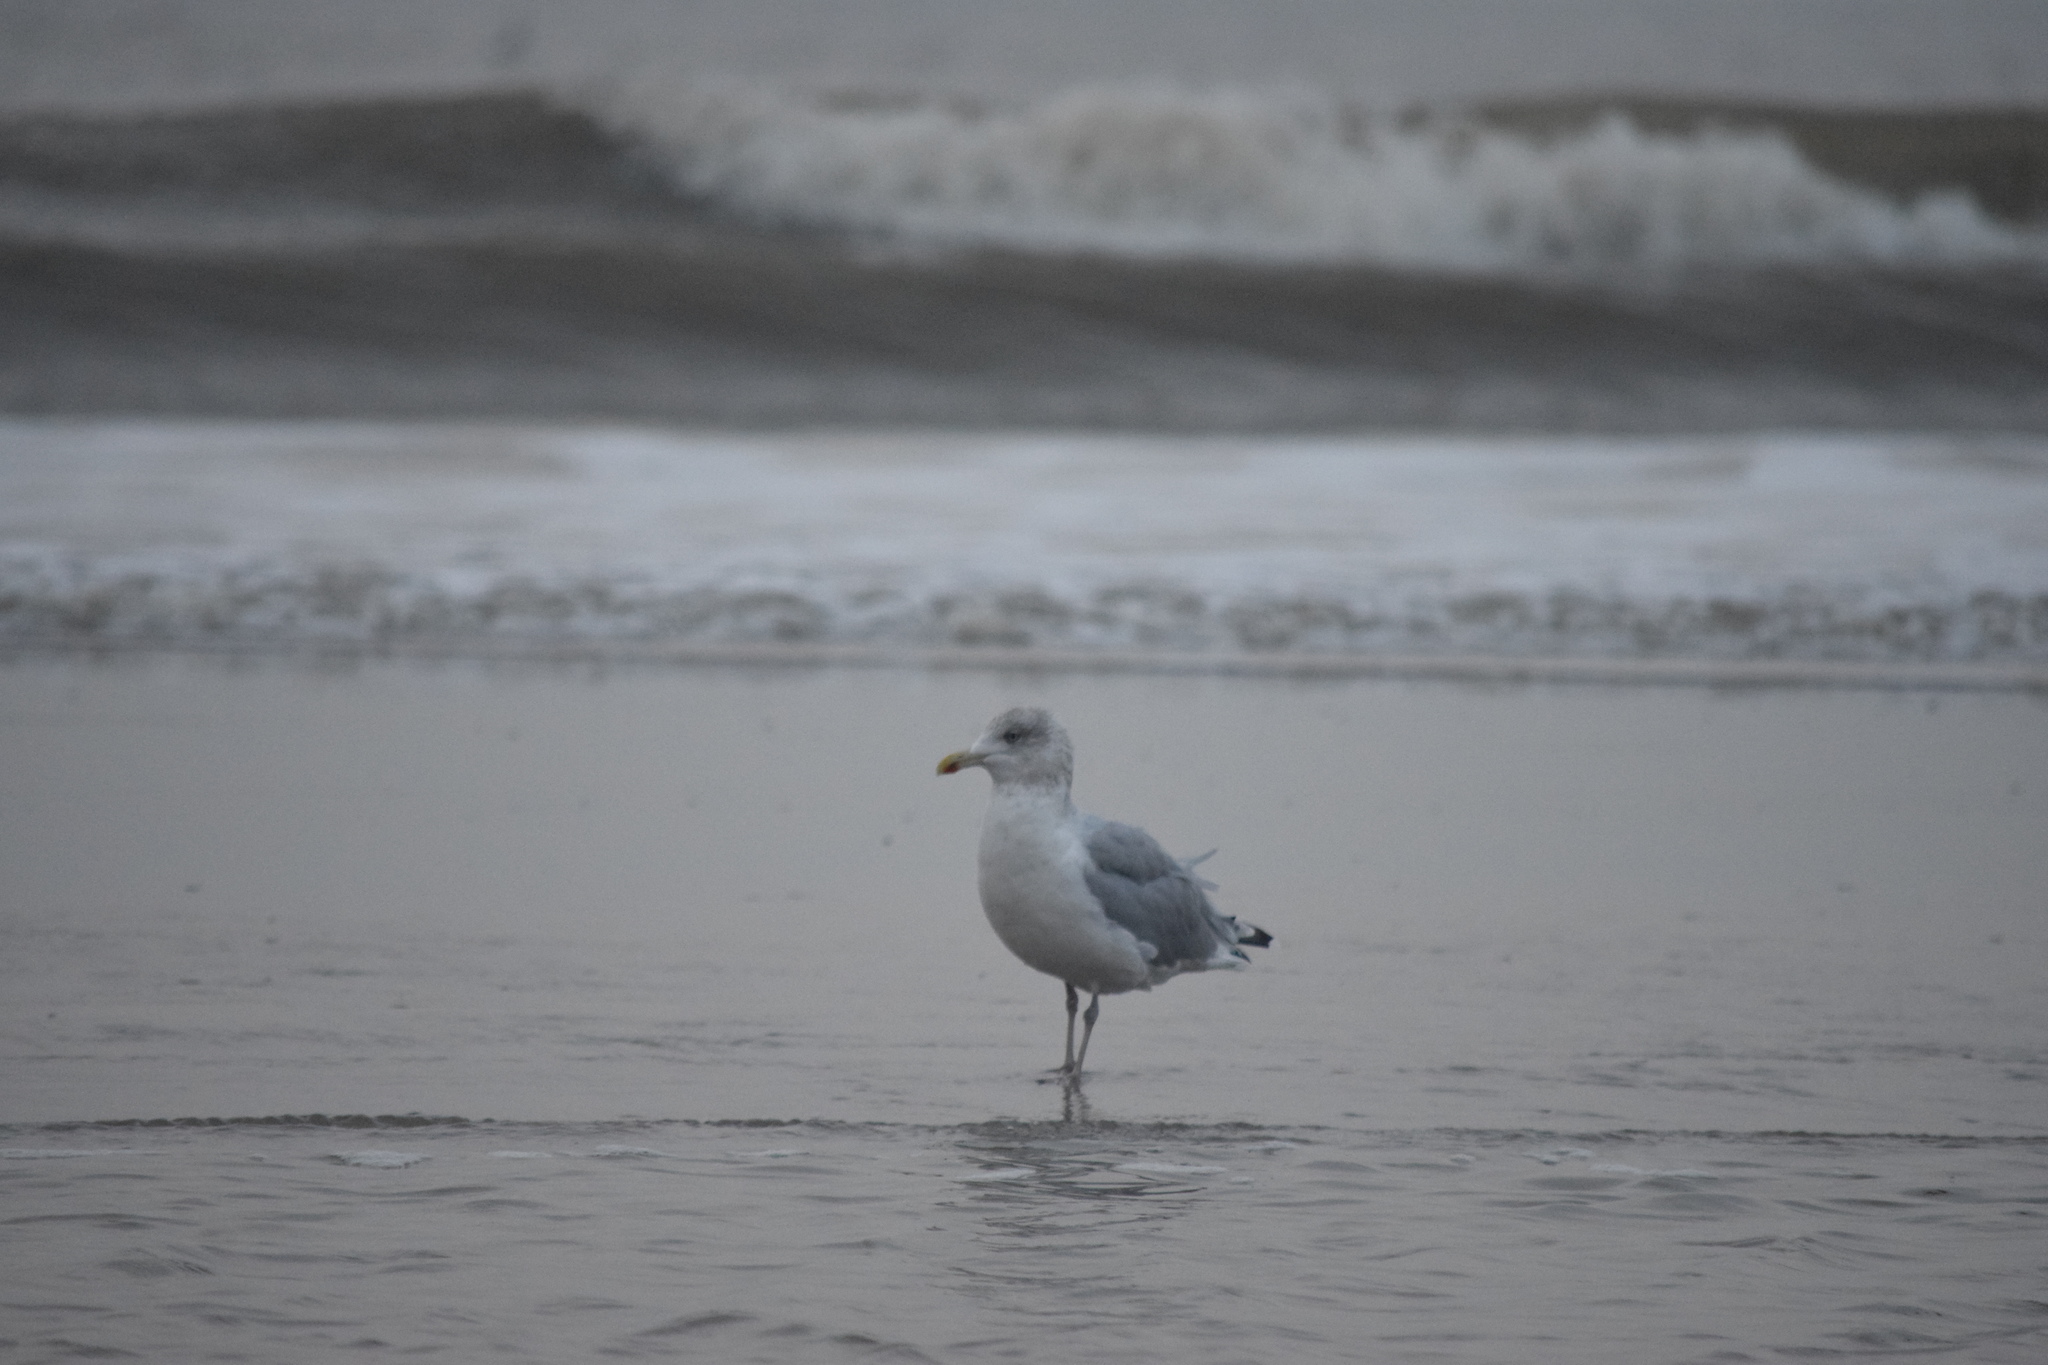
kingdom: Animalia
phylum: Chordata
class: Aves
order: Charadriiformes
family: Laridae
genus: Larus
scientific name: Larus argentatus
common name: Herring gull
